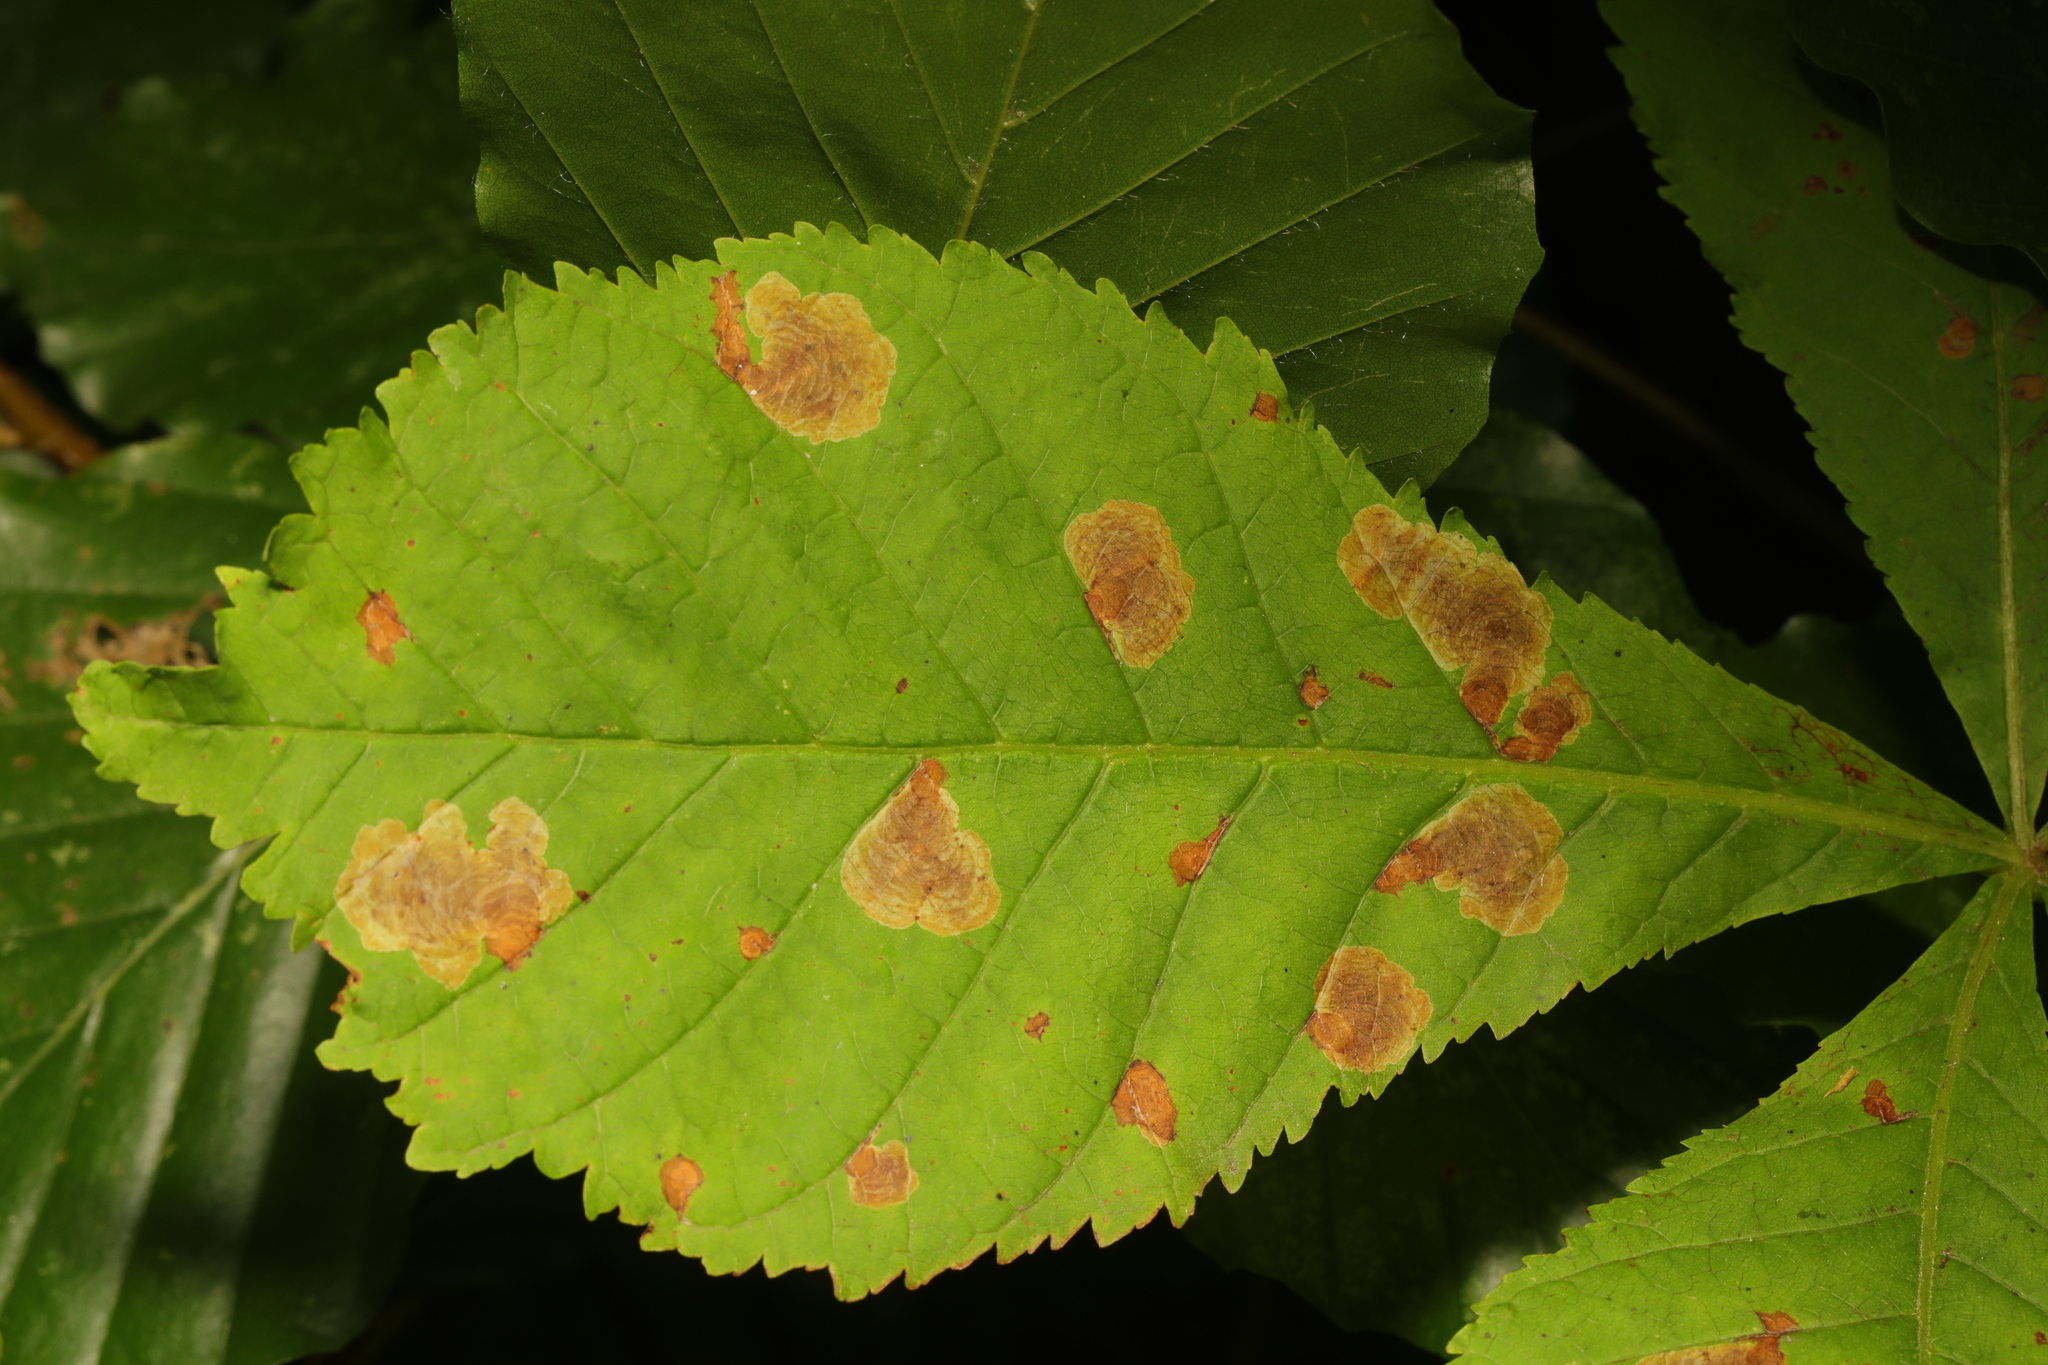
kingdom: Animalia
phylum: Arthropoda
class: Insecta
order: Lepidoptera
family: Gracillariidae
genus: Cameraria
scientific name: Cameraria ohridella
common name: Horse-chestnut leaf-miner
